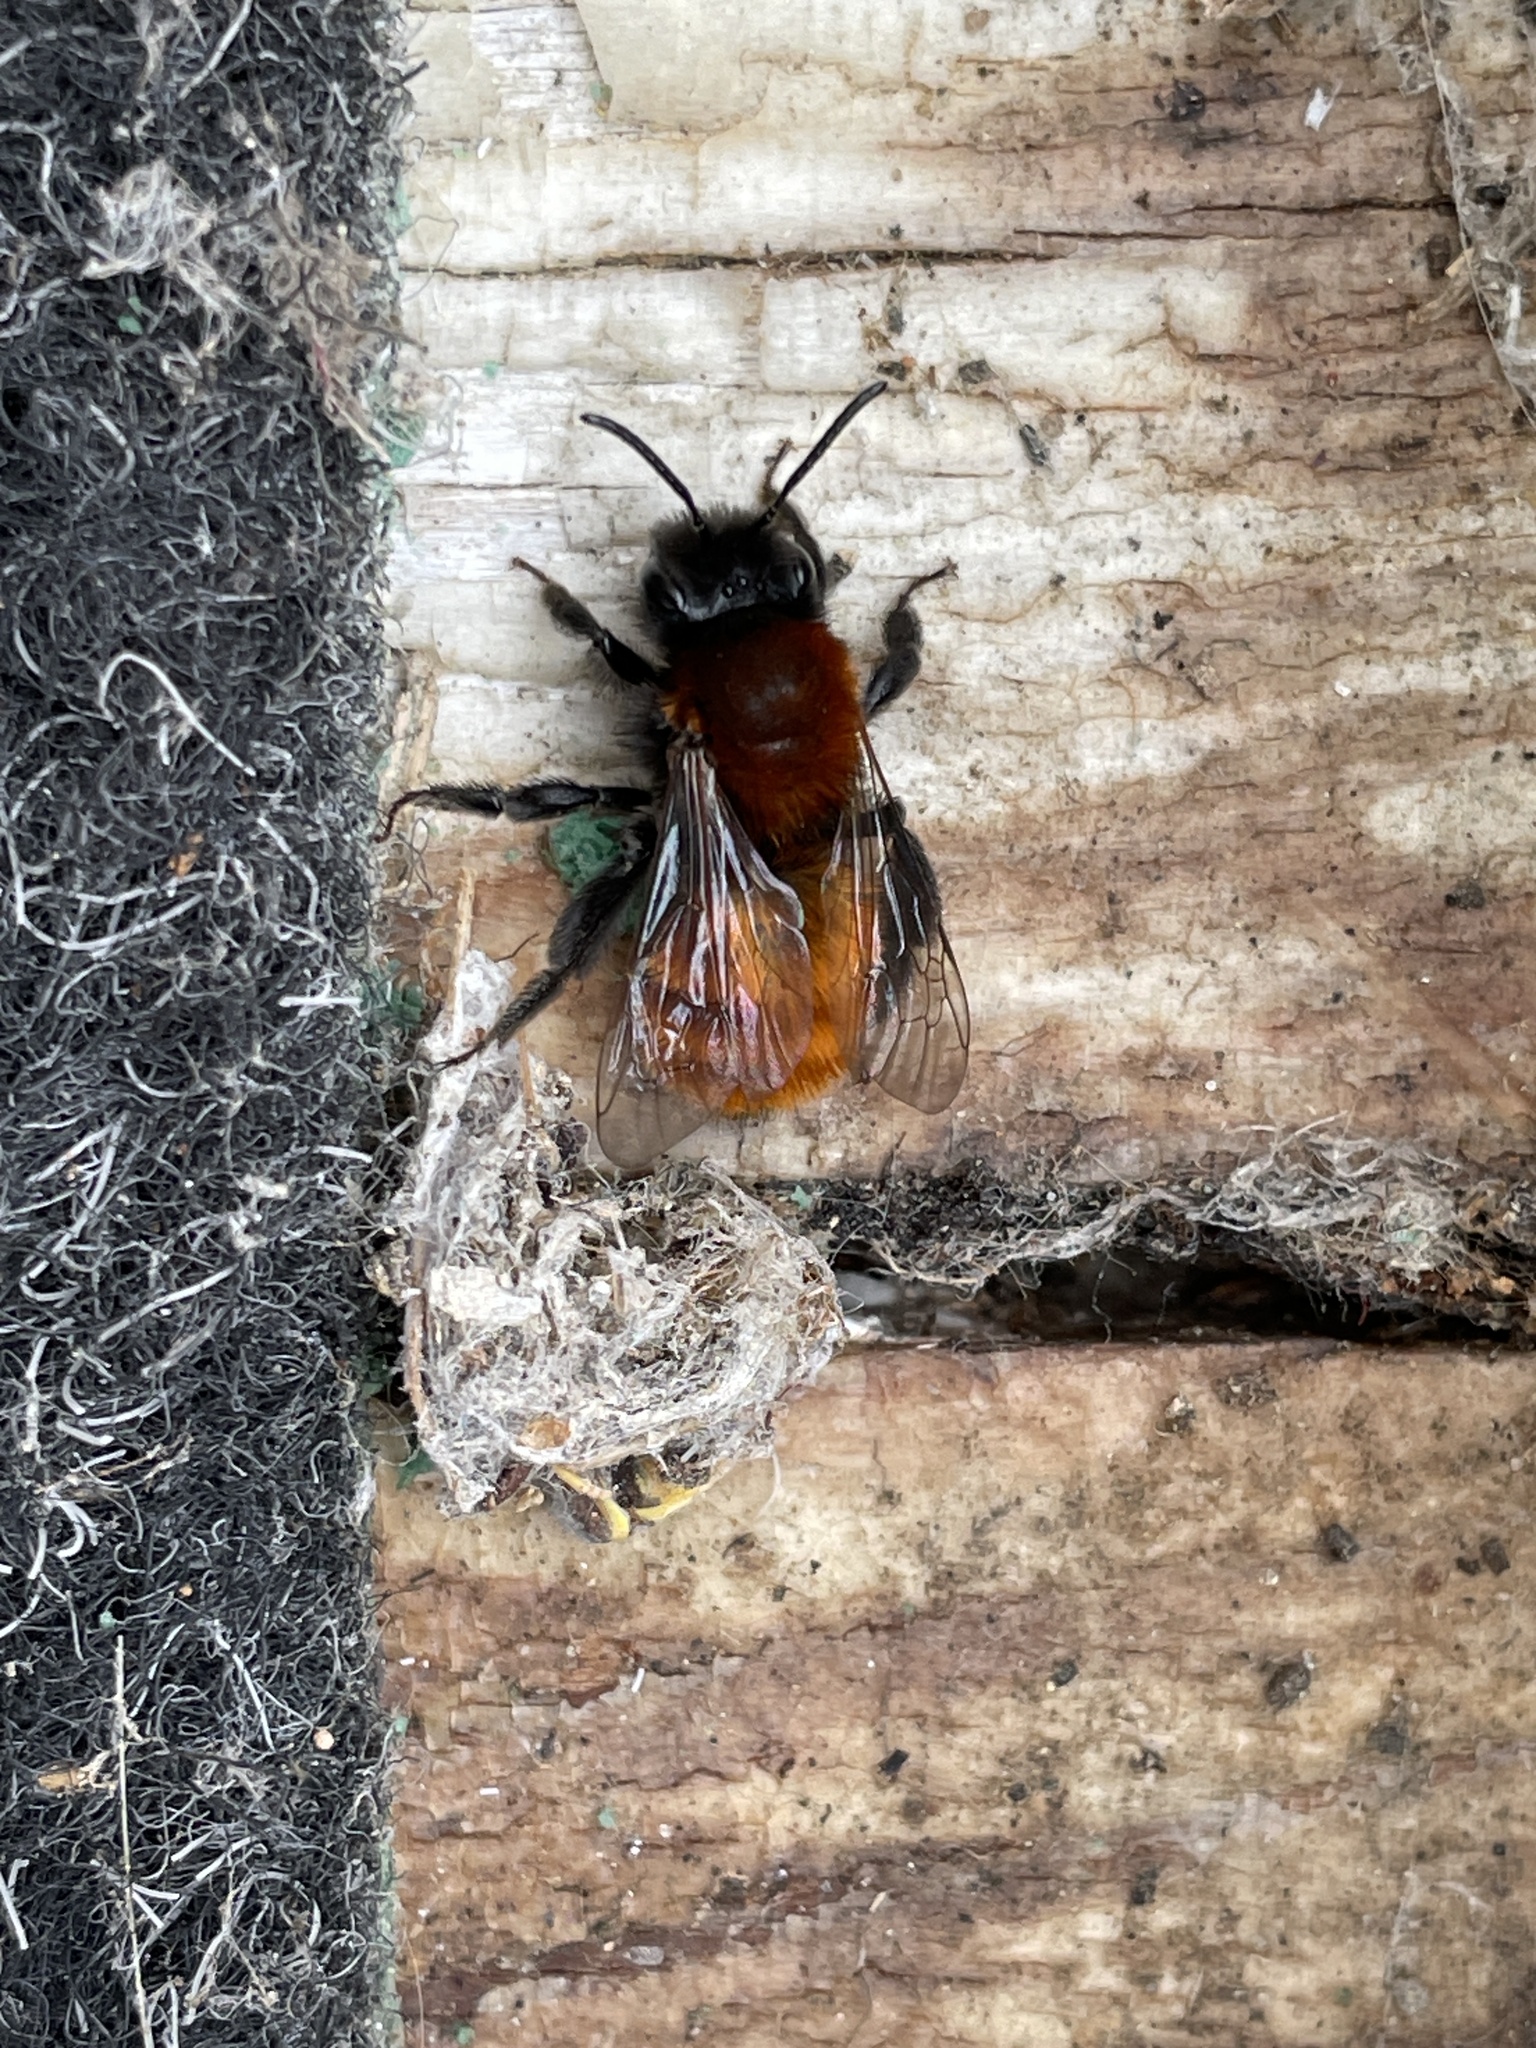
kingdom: Animalia
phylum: Arthropoda
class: Insecta
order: Hymenoptera
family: Andrenidae
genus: Andrena
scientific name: Andrena fulva
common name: Tawny mining bee
